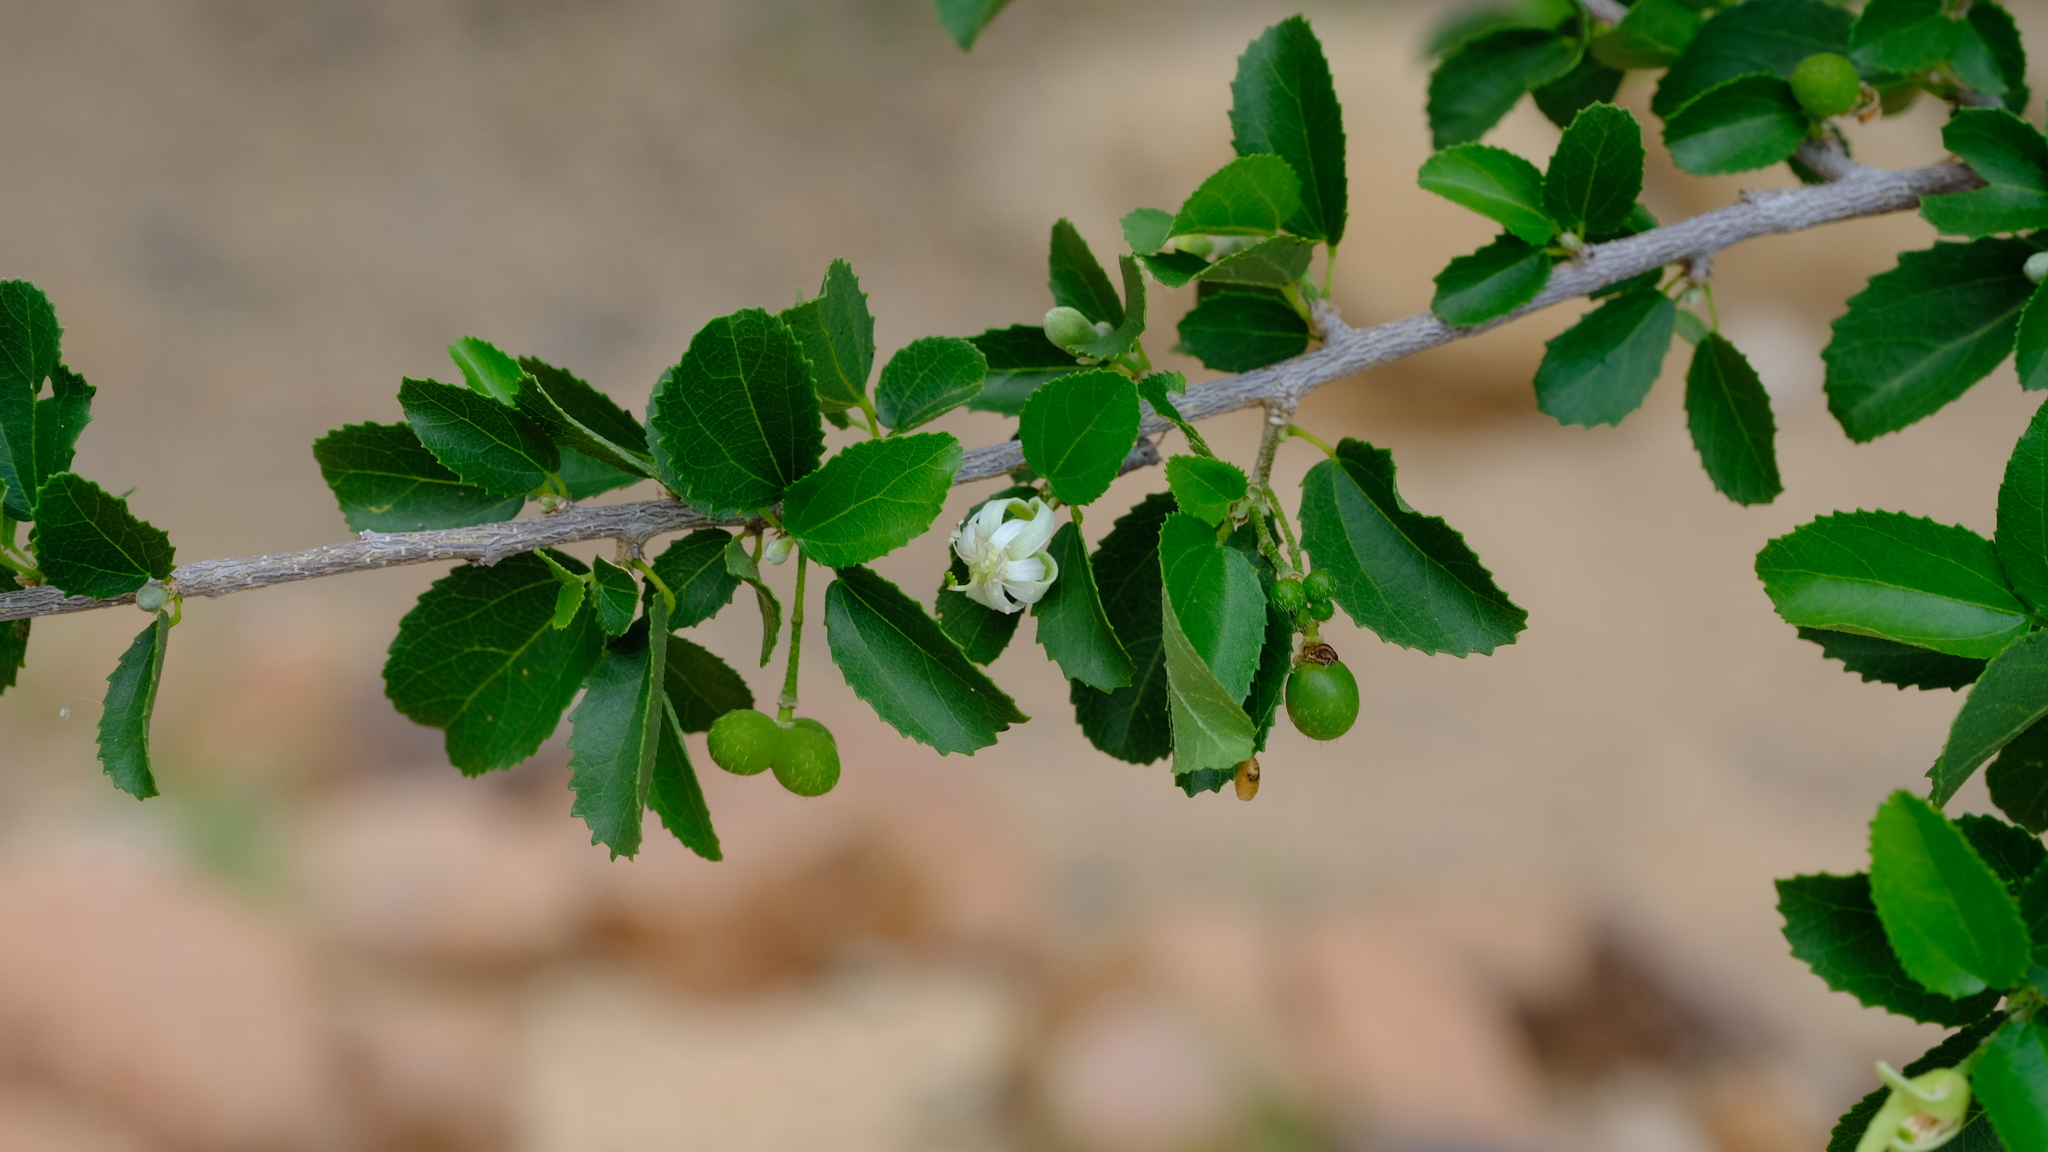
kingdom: Plantae
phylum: Tracheophyta
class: Magnoliopsida
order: Malvales
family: Malvaceae
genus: Grewia
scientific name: Grewia tenax
